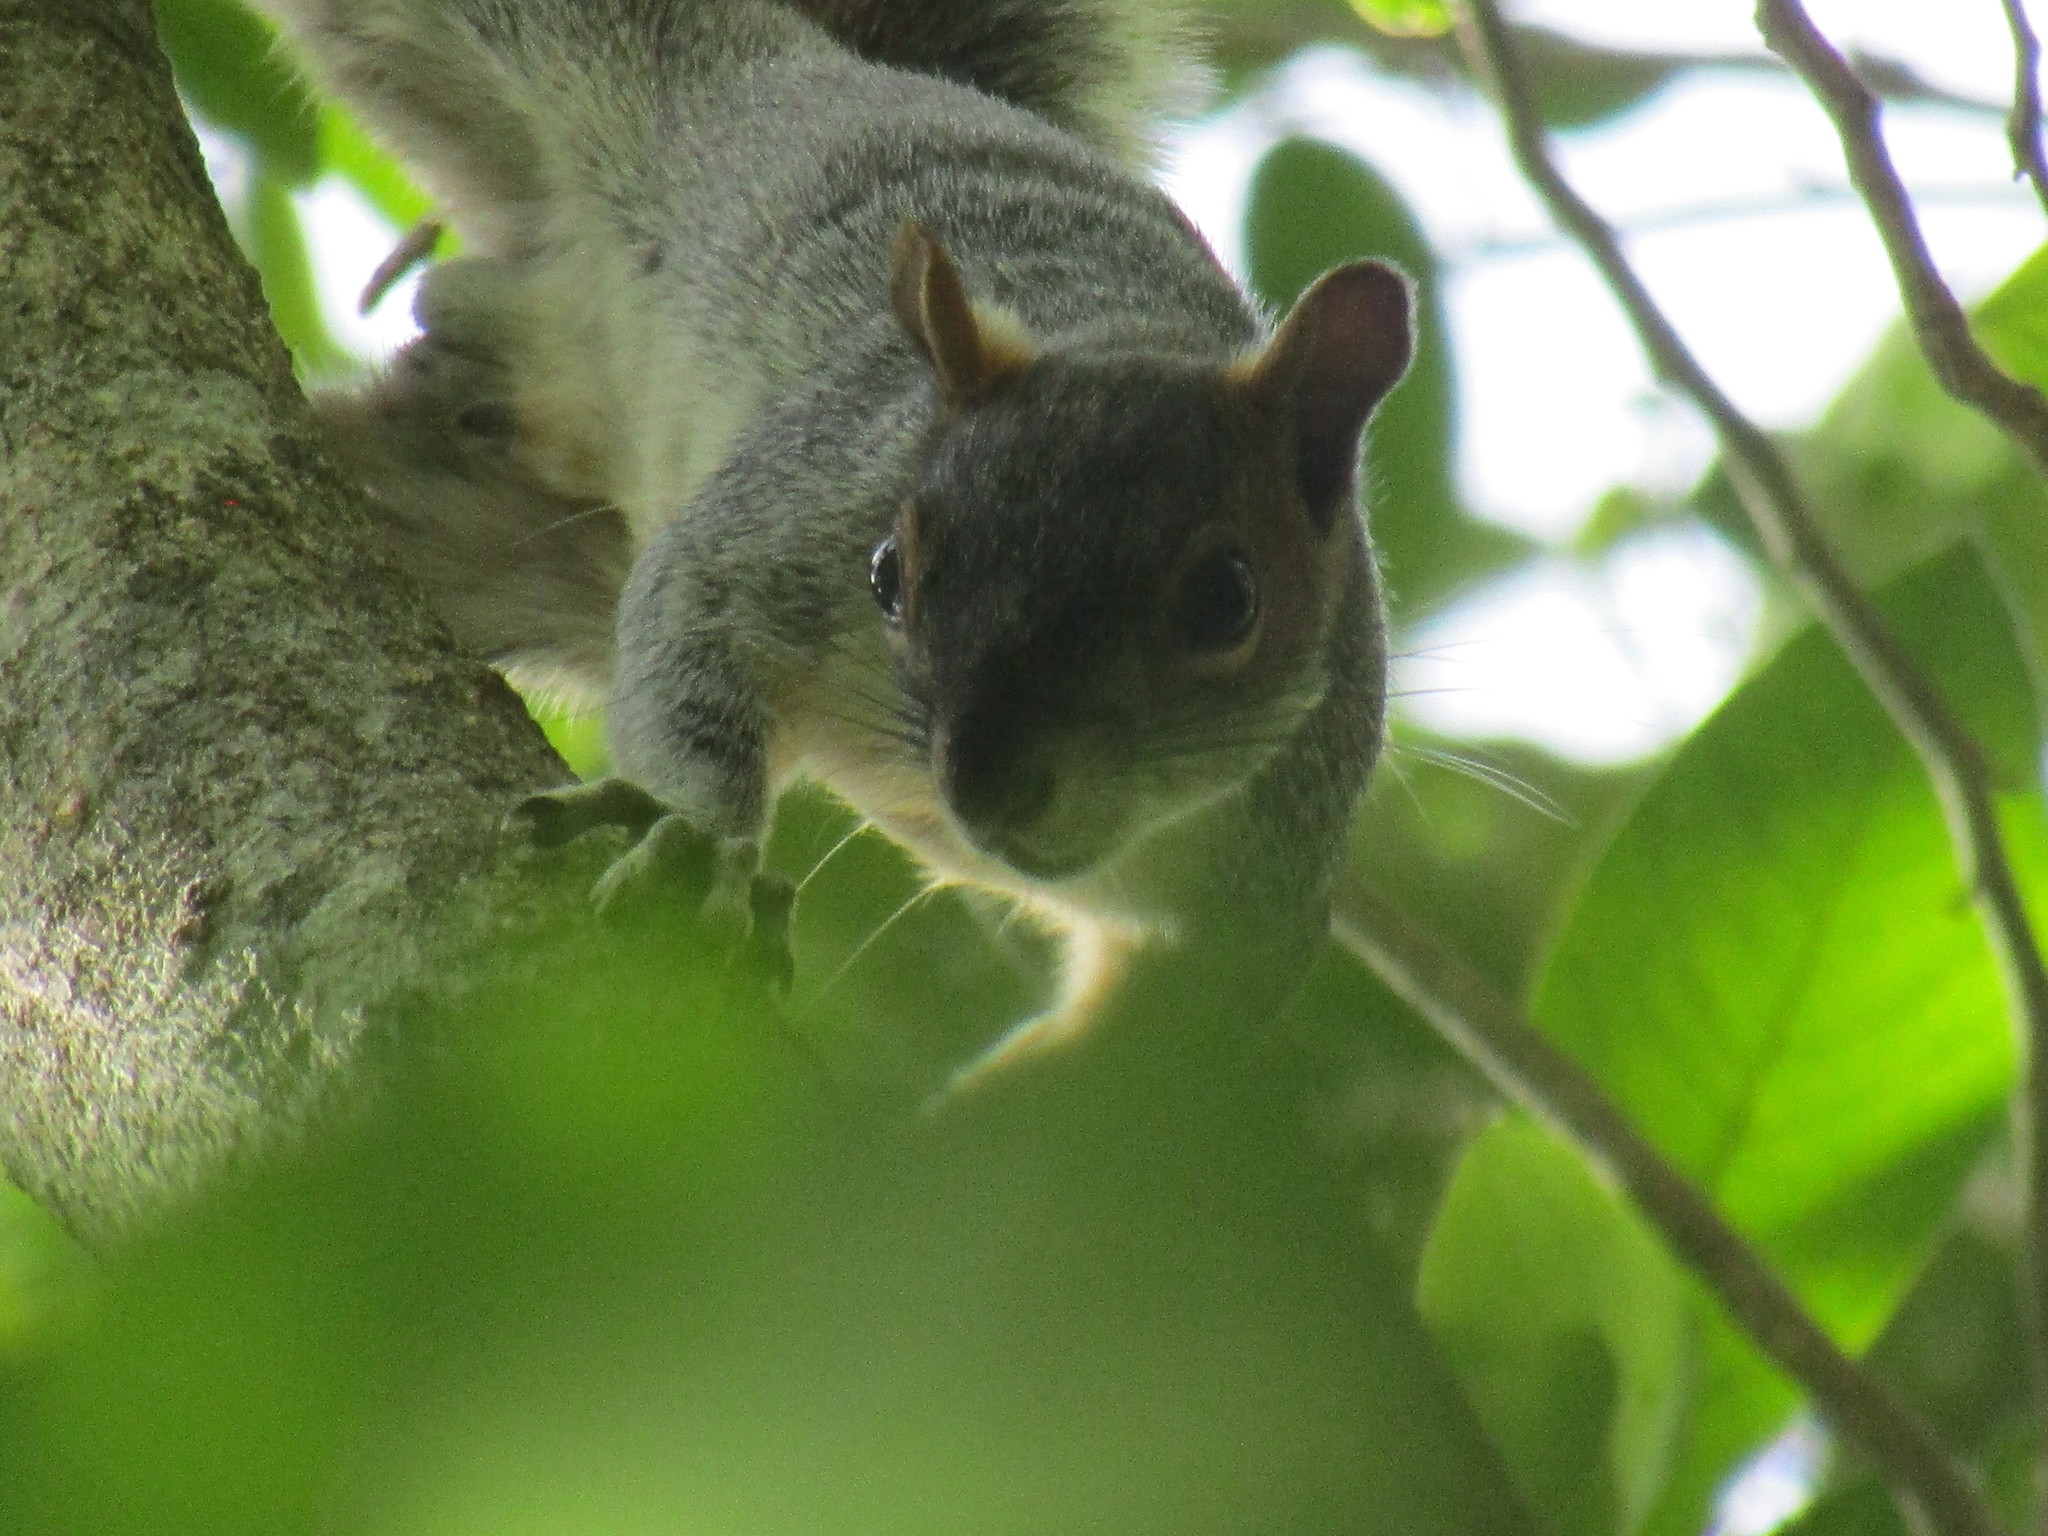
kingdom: Animalia
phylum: Chordata
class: Mammalia
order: Rodentia
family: Sciuridae
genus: Sciurus
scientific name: Sciurus aureogaster
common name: Red-bellied squirrel
